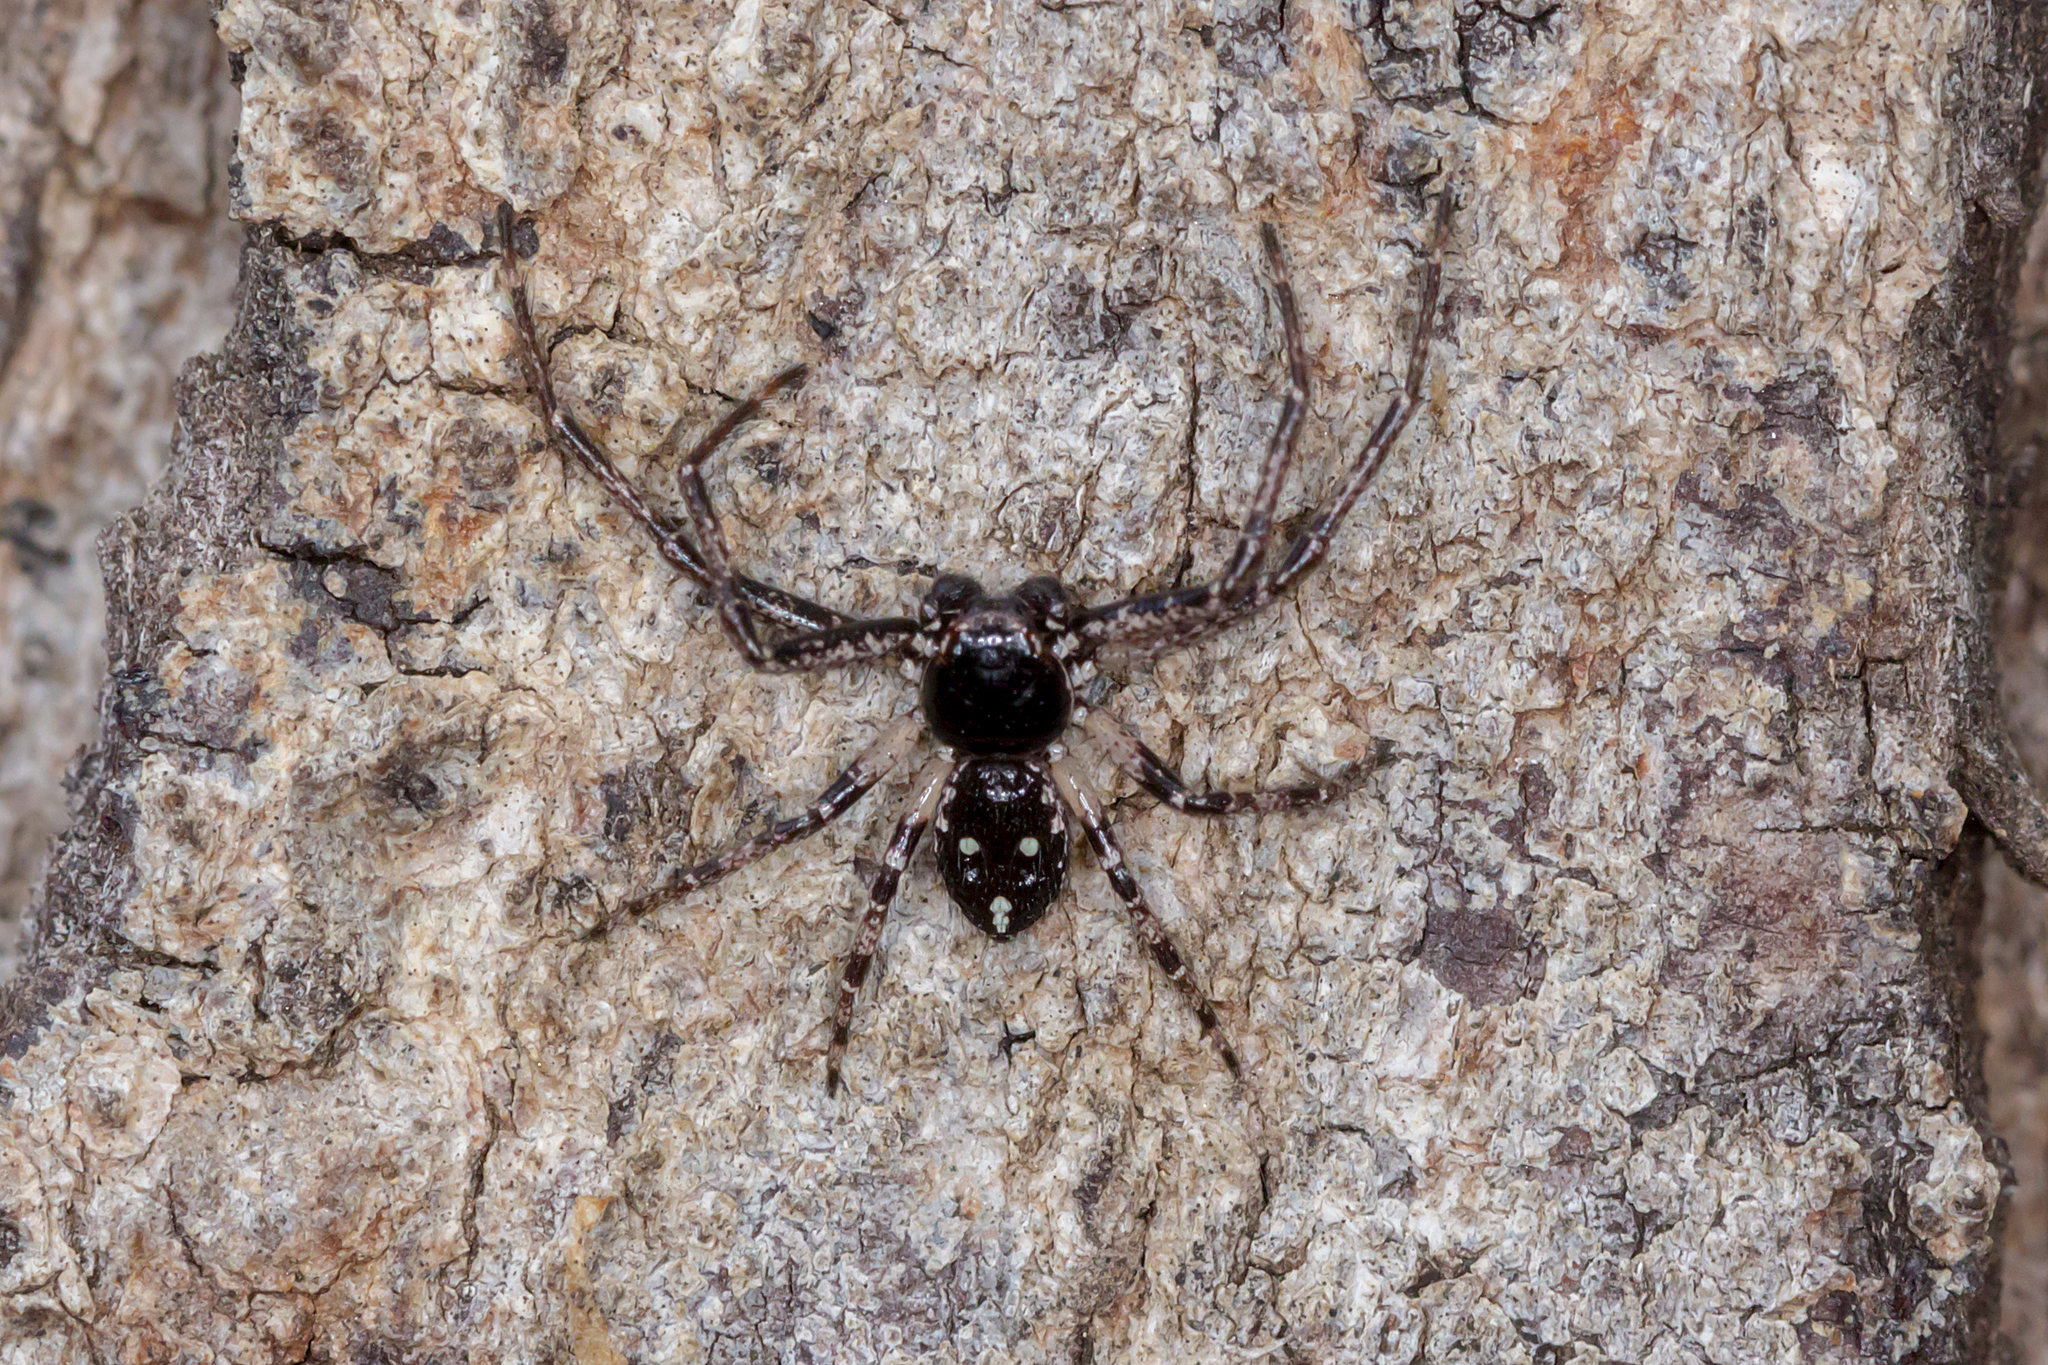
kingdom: Animalia
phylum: Arthropoda
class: Arachnida
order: Araneae
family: Thomisidae
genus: Tharpyna
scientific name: Tharpyna campestrata
